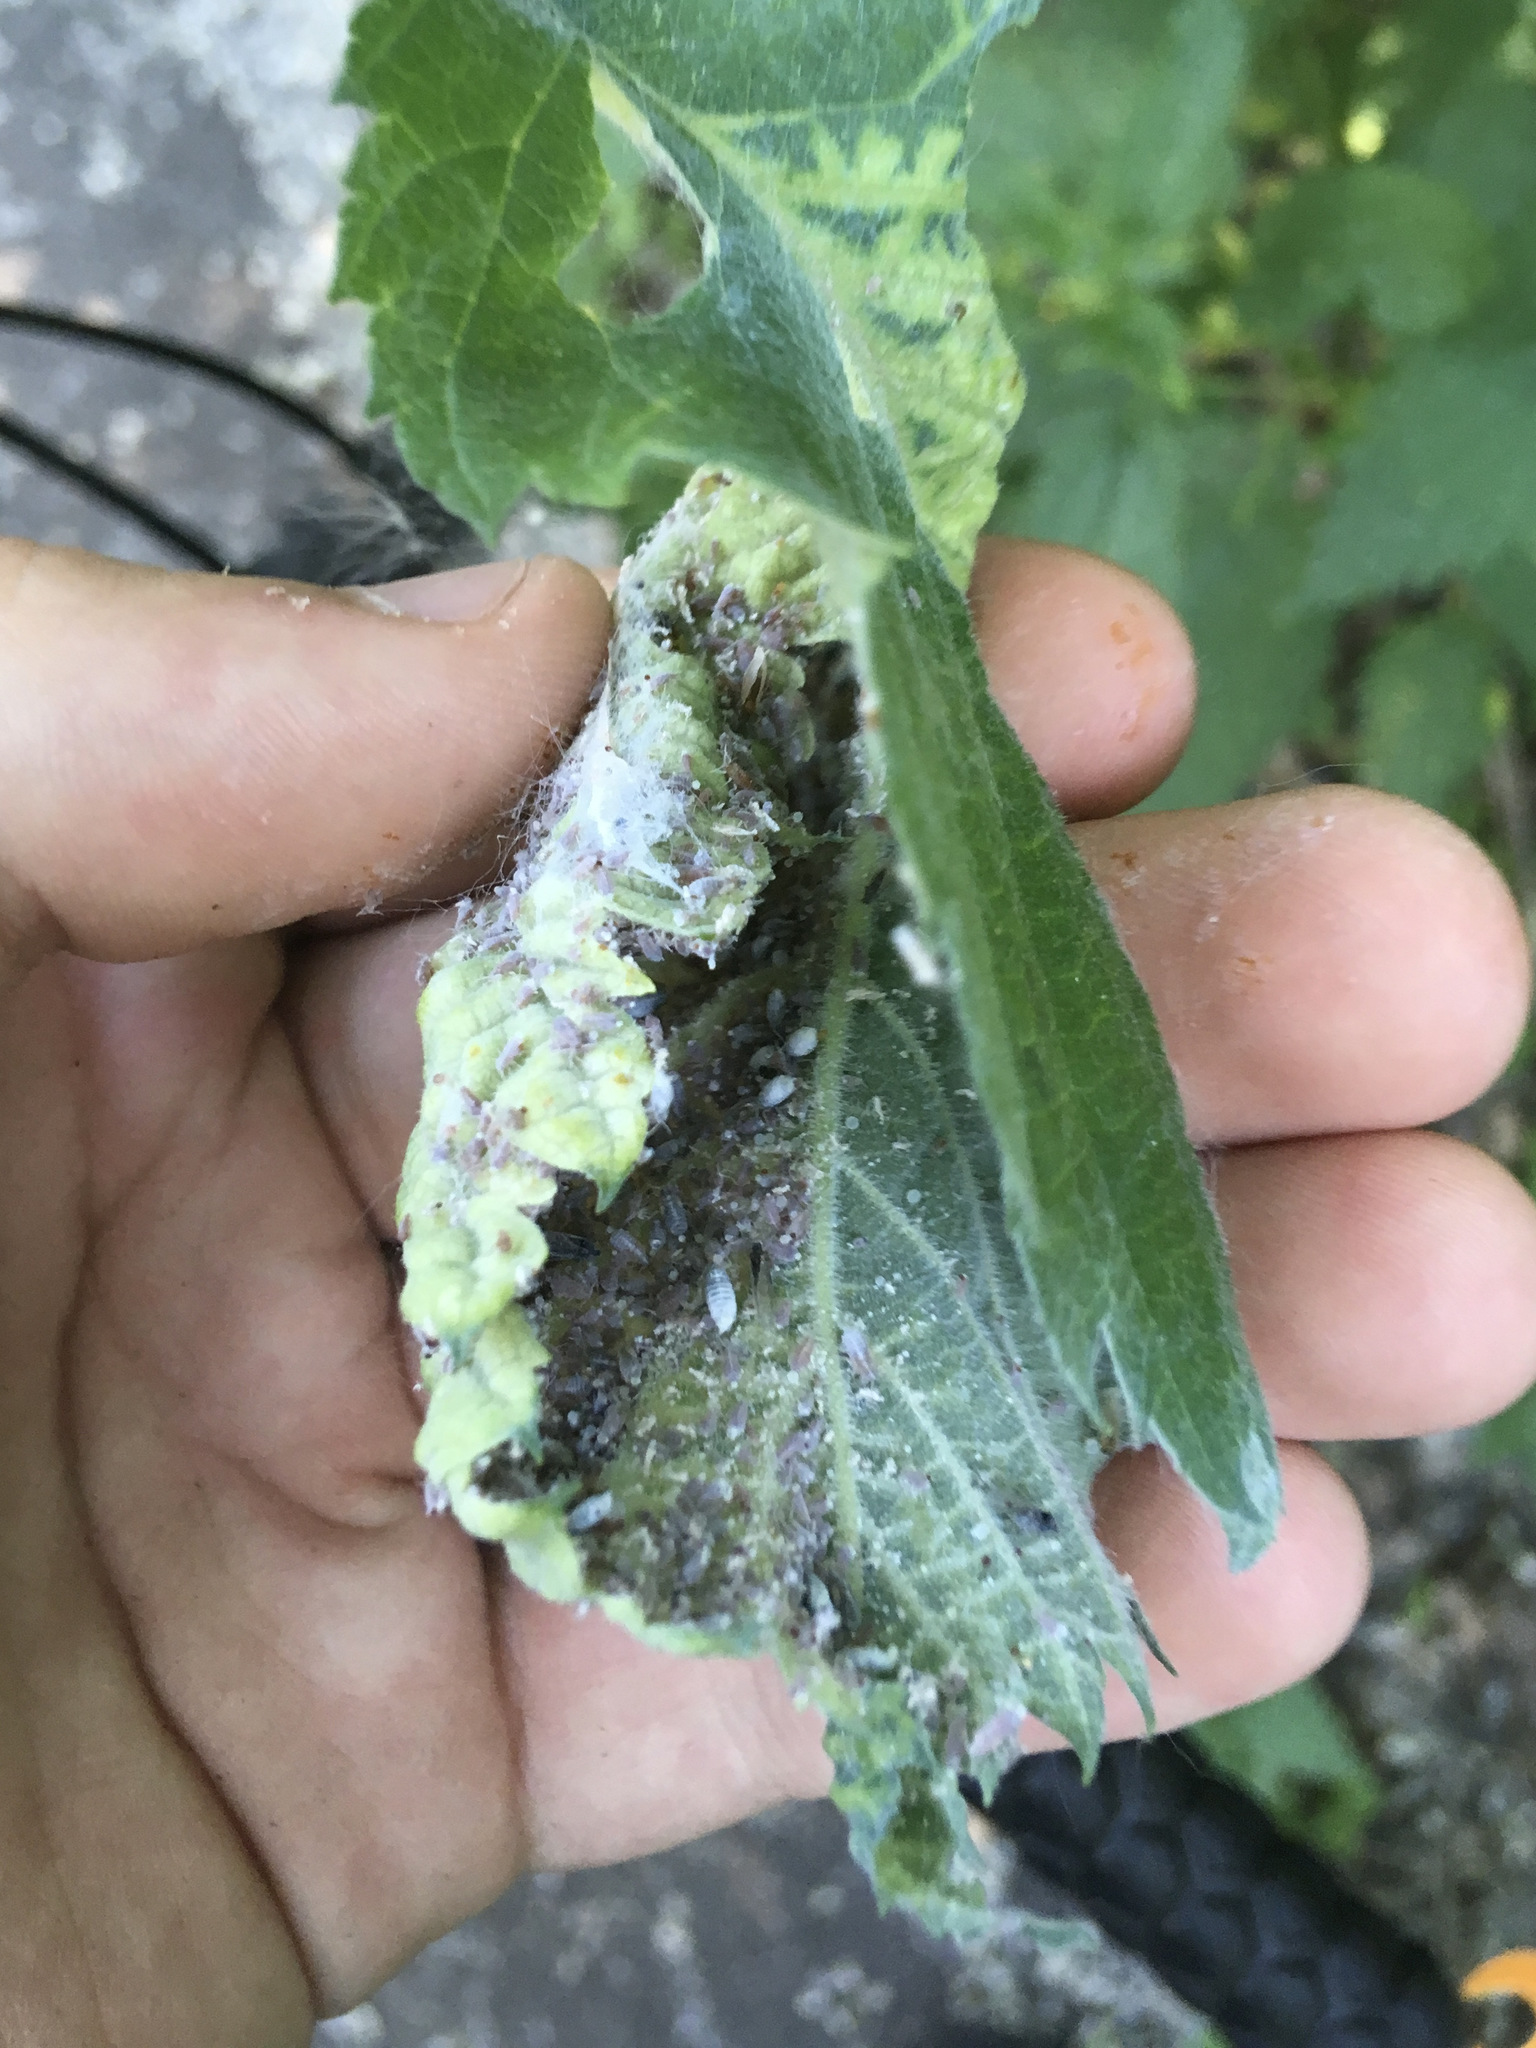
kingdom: Animalia
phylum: Arthropoda
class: Insecta
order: Hemiptera
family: Aphididae
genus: Eriosoma
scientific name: Eriosoma americanum
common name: Woolly elm aphid
